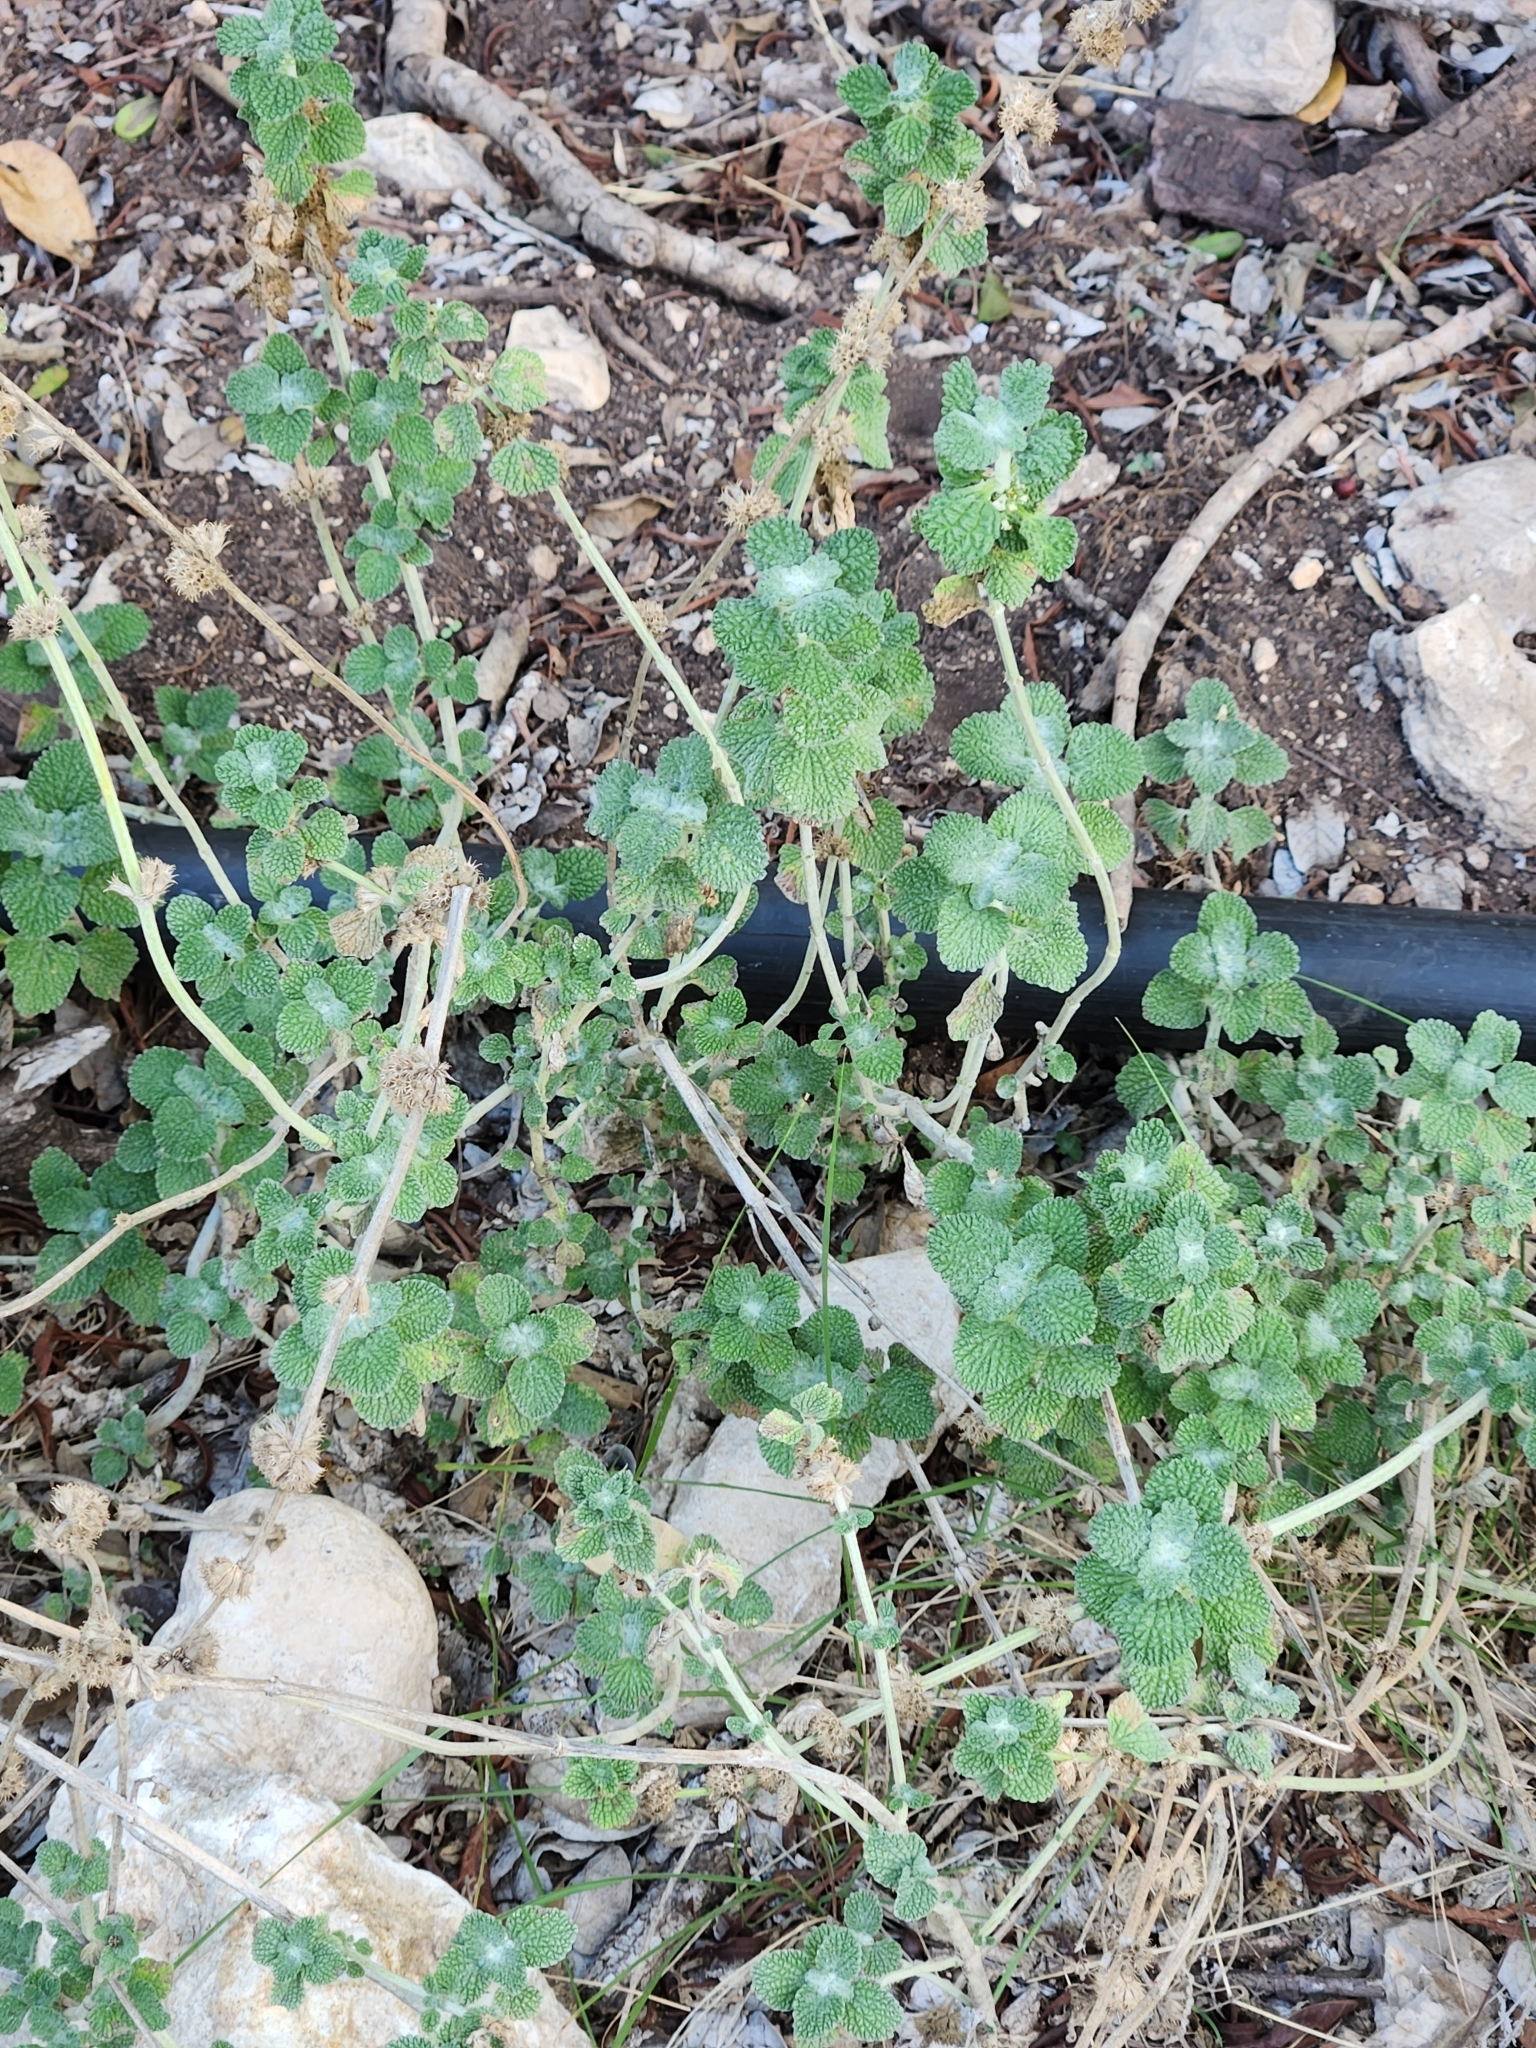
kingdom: Plantae
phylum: Tracheophyta
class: Magnoliopsida
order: Lamiales
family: Lamiaceae
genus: Marrubium
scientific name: Marrubium vulgare
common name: Horehound
